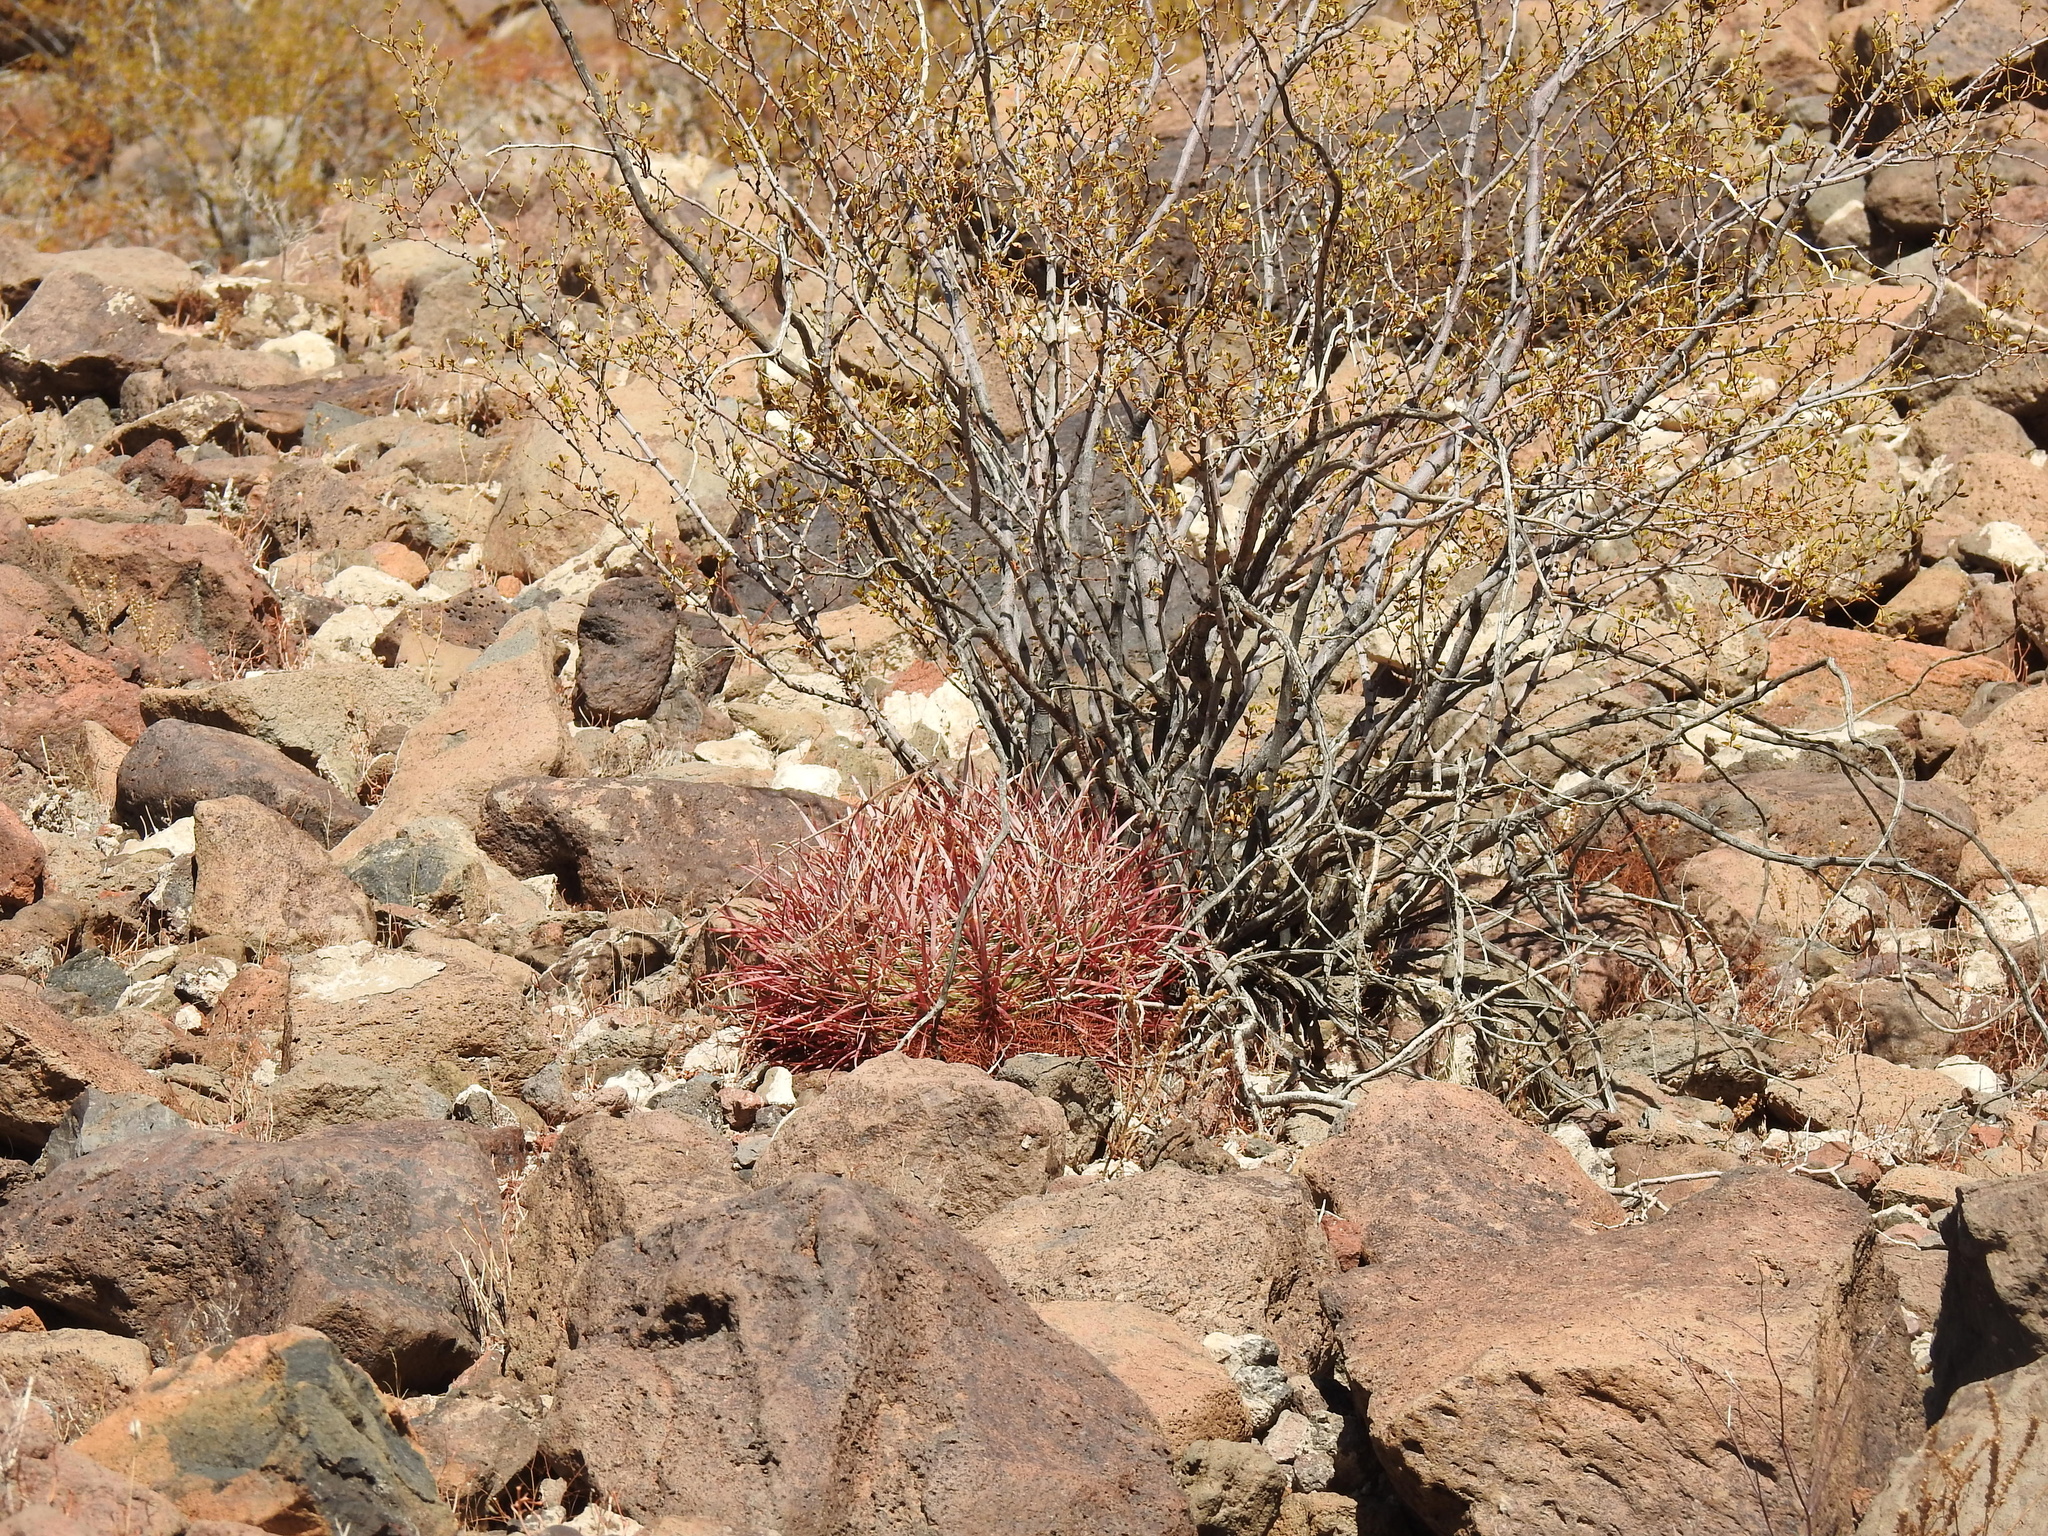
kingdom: Plantae
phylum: Tracheophyta
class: Magnoliopsida
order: Caryophyllales
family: Cactaceae
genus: Ferocactus
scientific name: Ferocactus cylindraceus
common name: California barrel cactus
